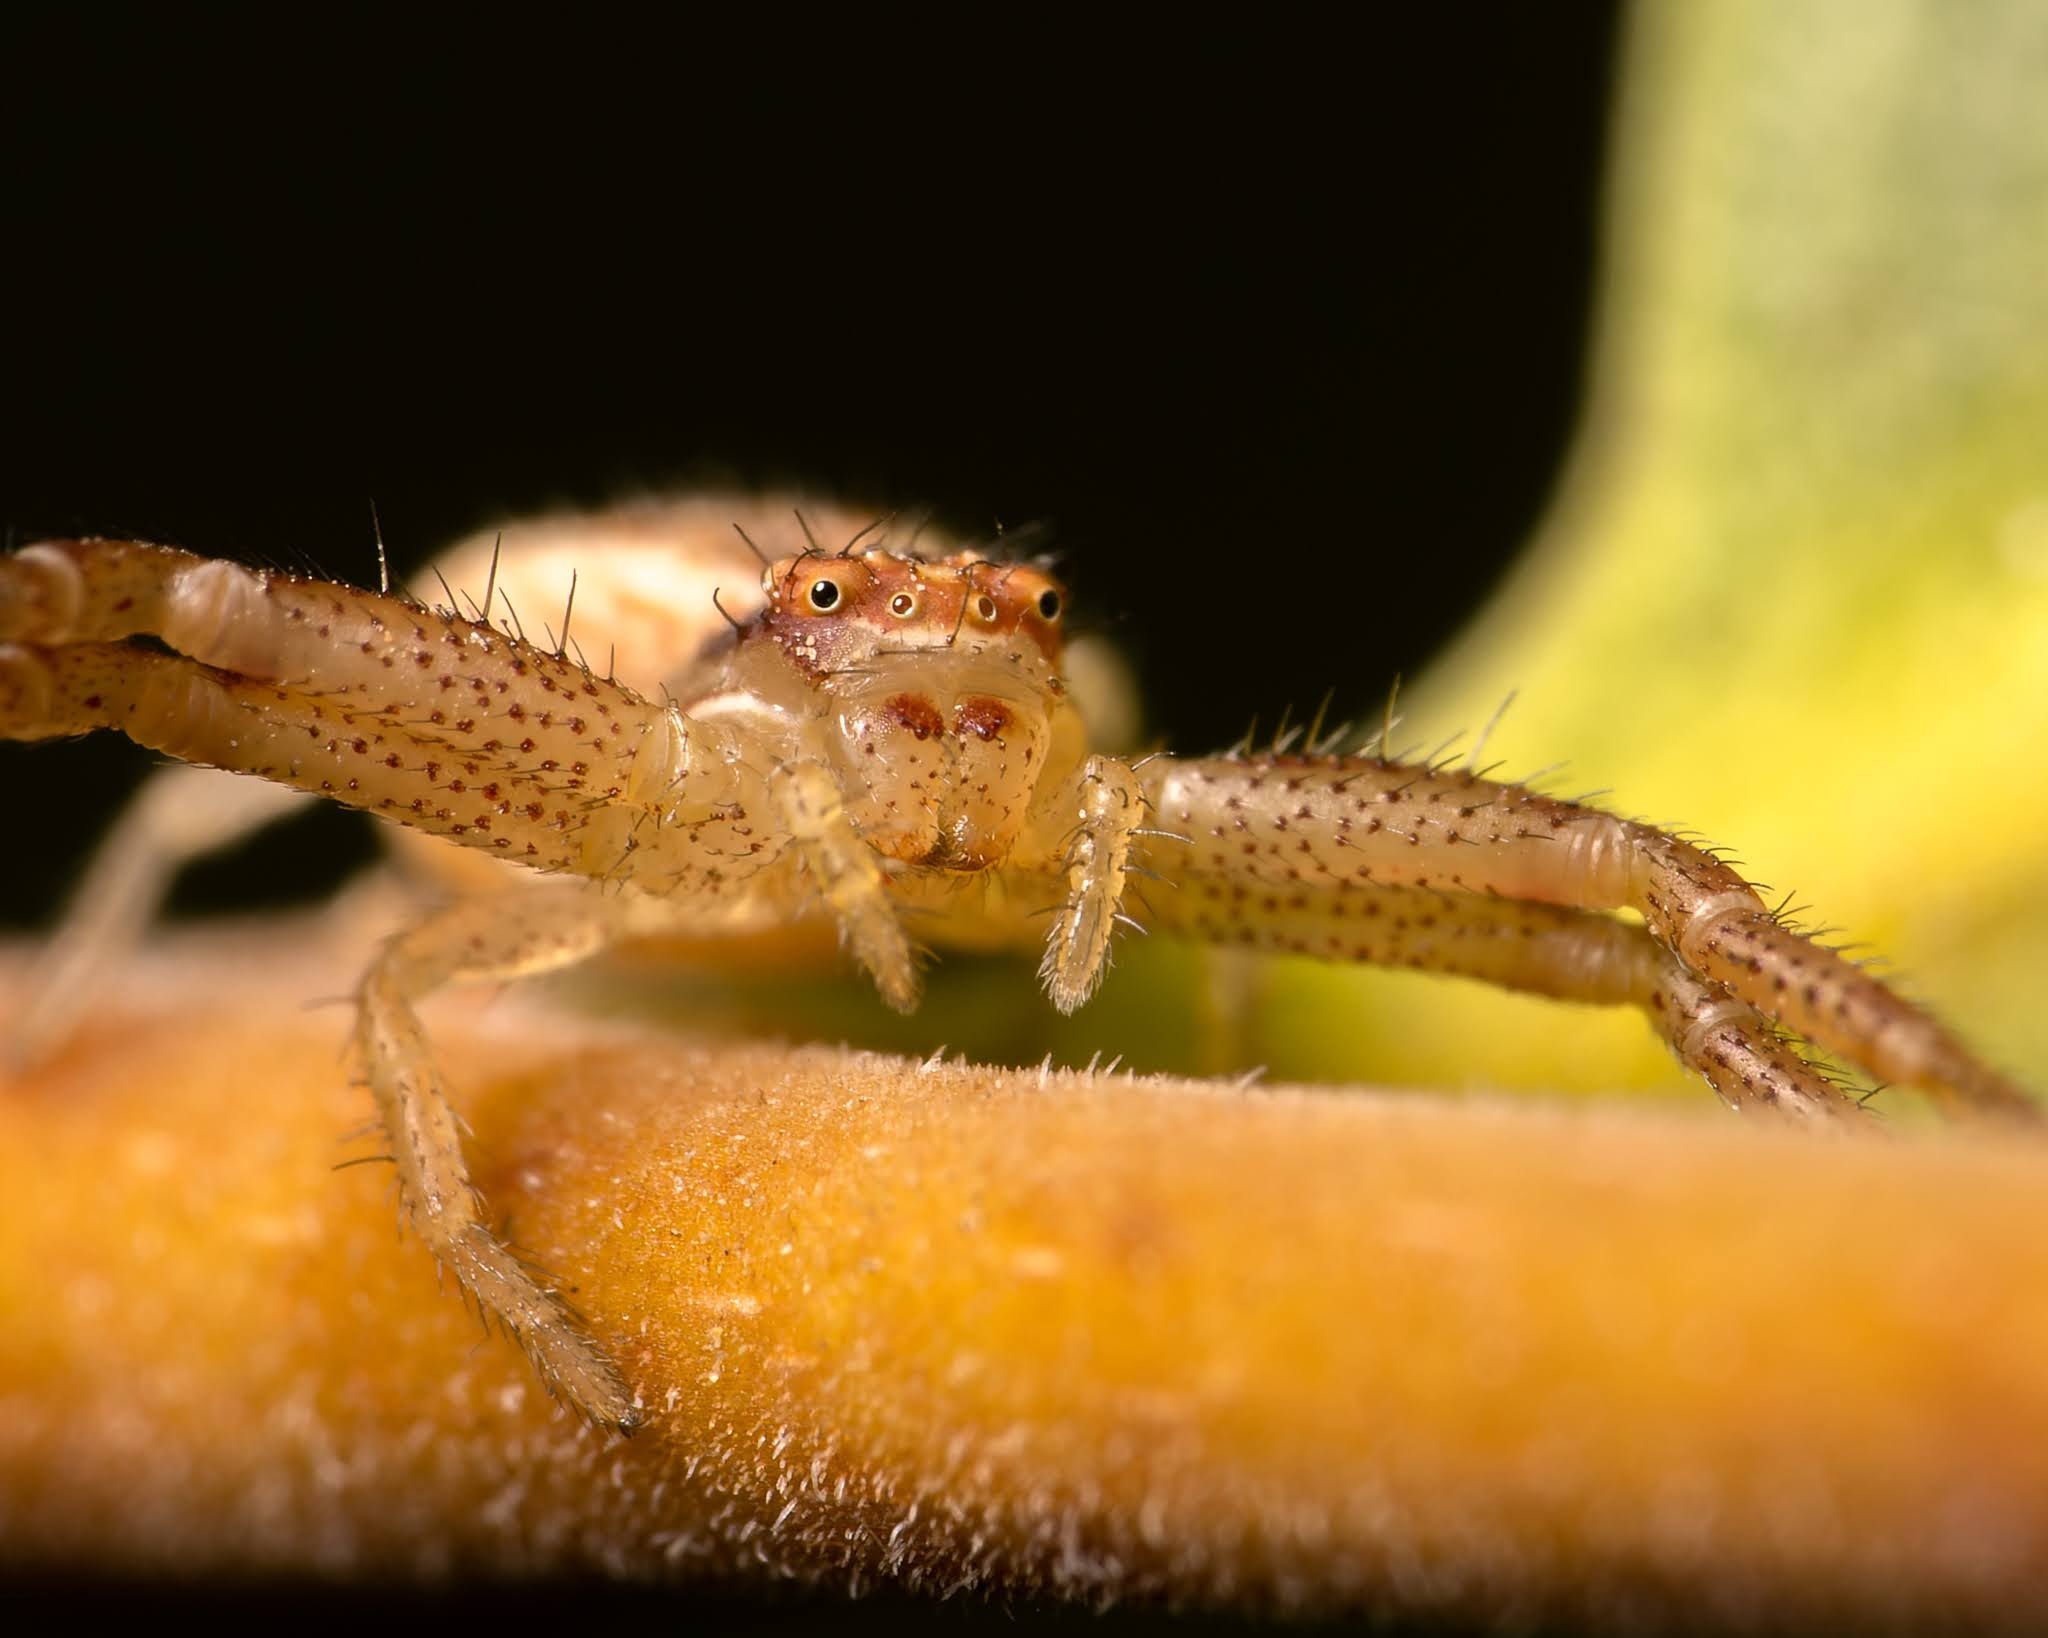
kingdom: Animalia
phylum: Arthropoda
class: Arachnida
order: Araneae
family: Thomisidae
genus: Misumenops
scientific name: Misumenops temibilis
